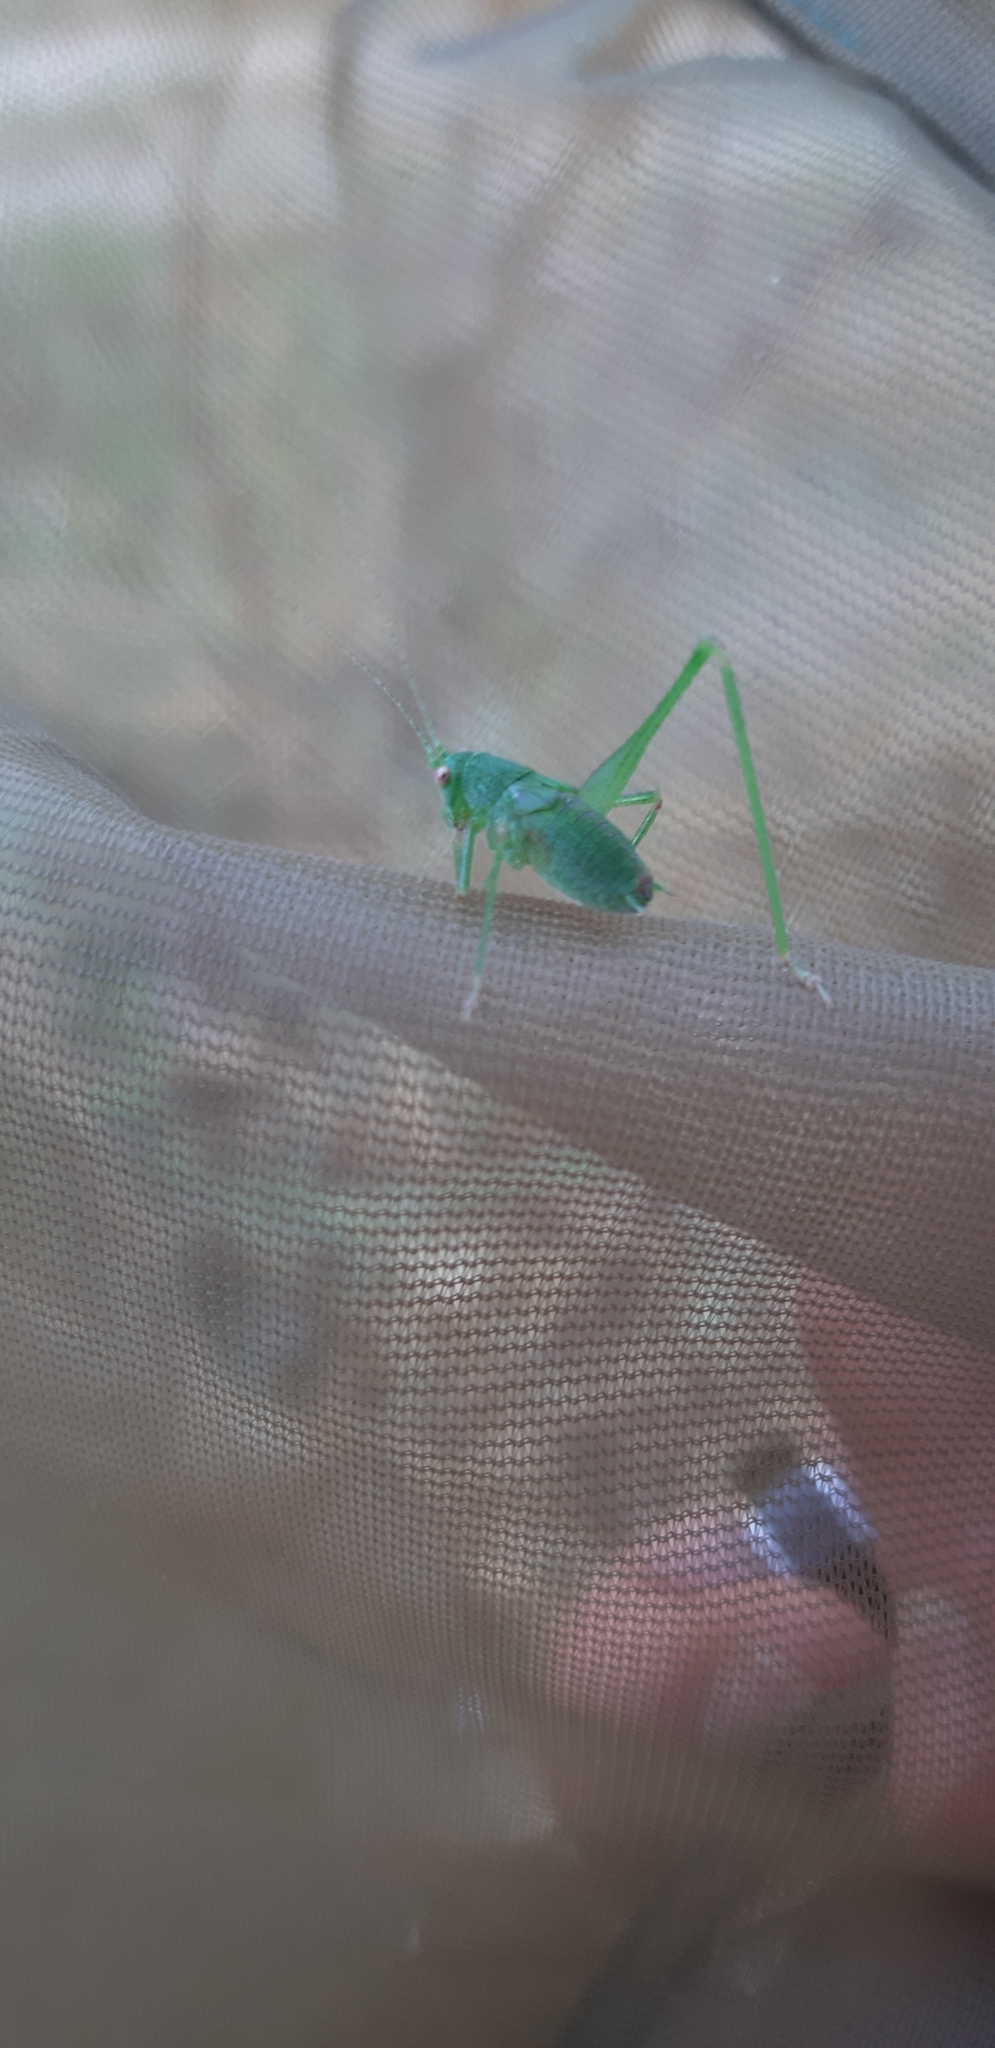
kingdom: Animalia
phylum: Arthropoda
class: Insecta
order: Orthoptera
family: Tettigoniidae
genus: Phaneroptera
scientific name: Phaneroptera nana
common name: Southern sickle bush-cricket
